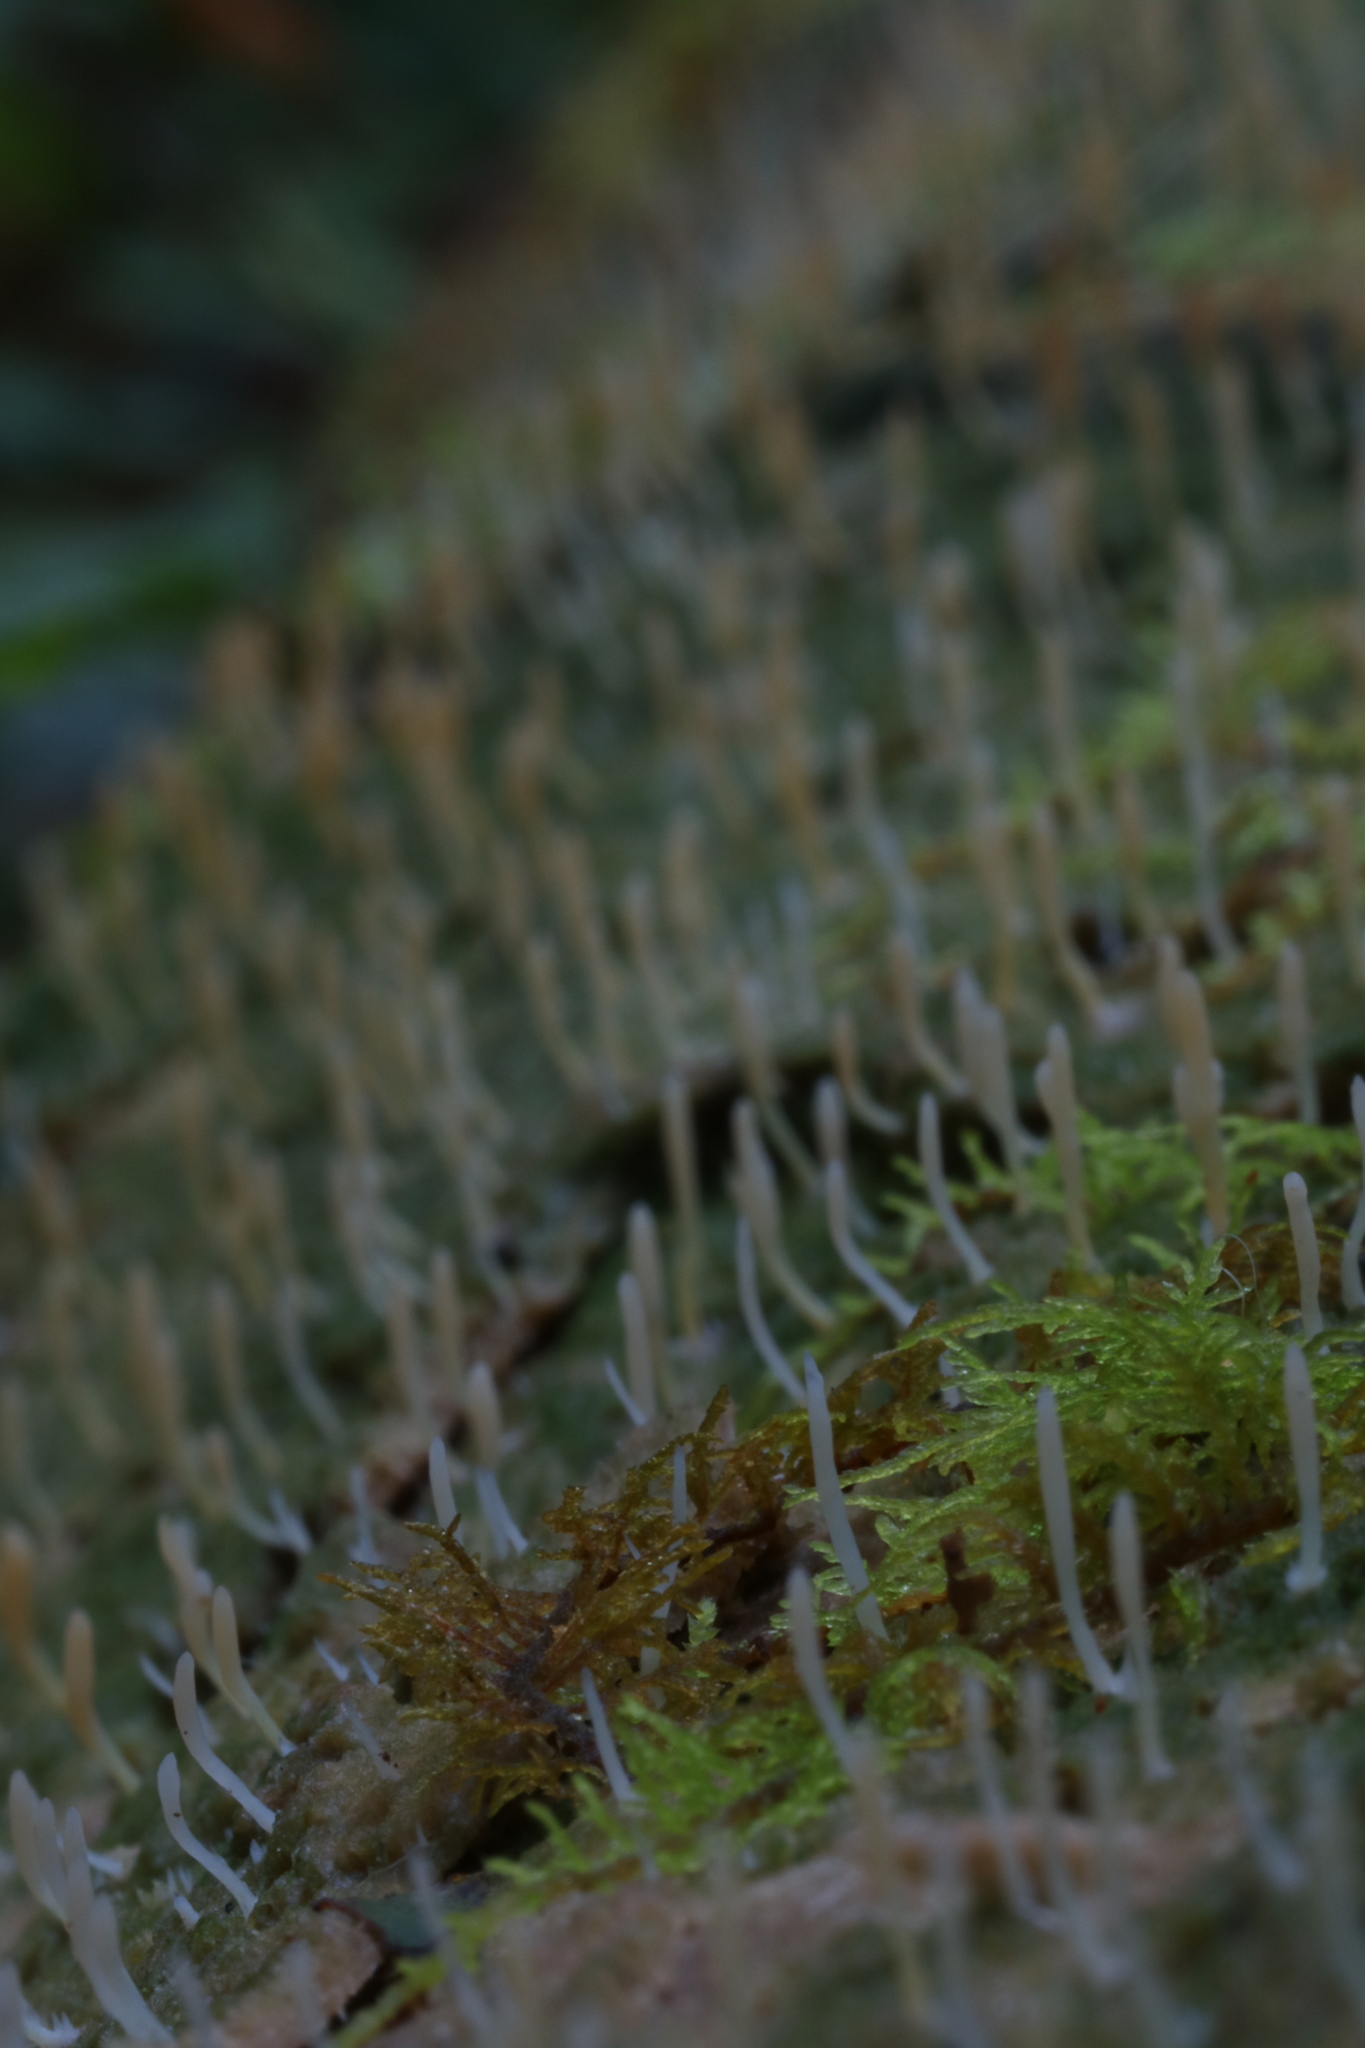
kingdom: Fungi
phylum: Basidiomycota
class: Agaricomycetes
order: Cantharellales
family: Hydnaceae
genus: Multiclavula
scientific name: Multiclavula mucida
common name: White green-algae coral
